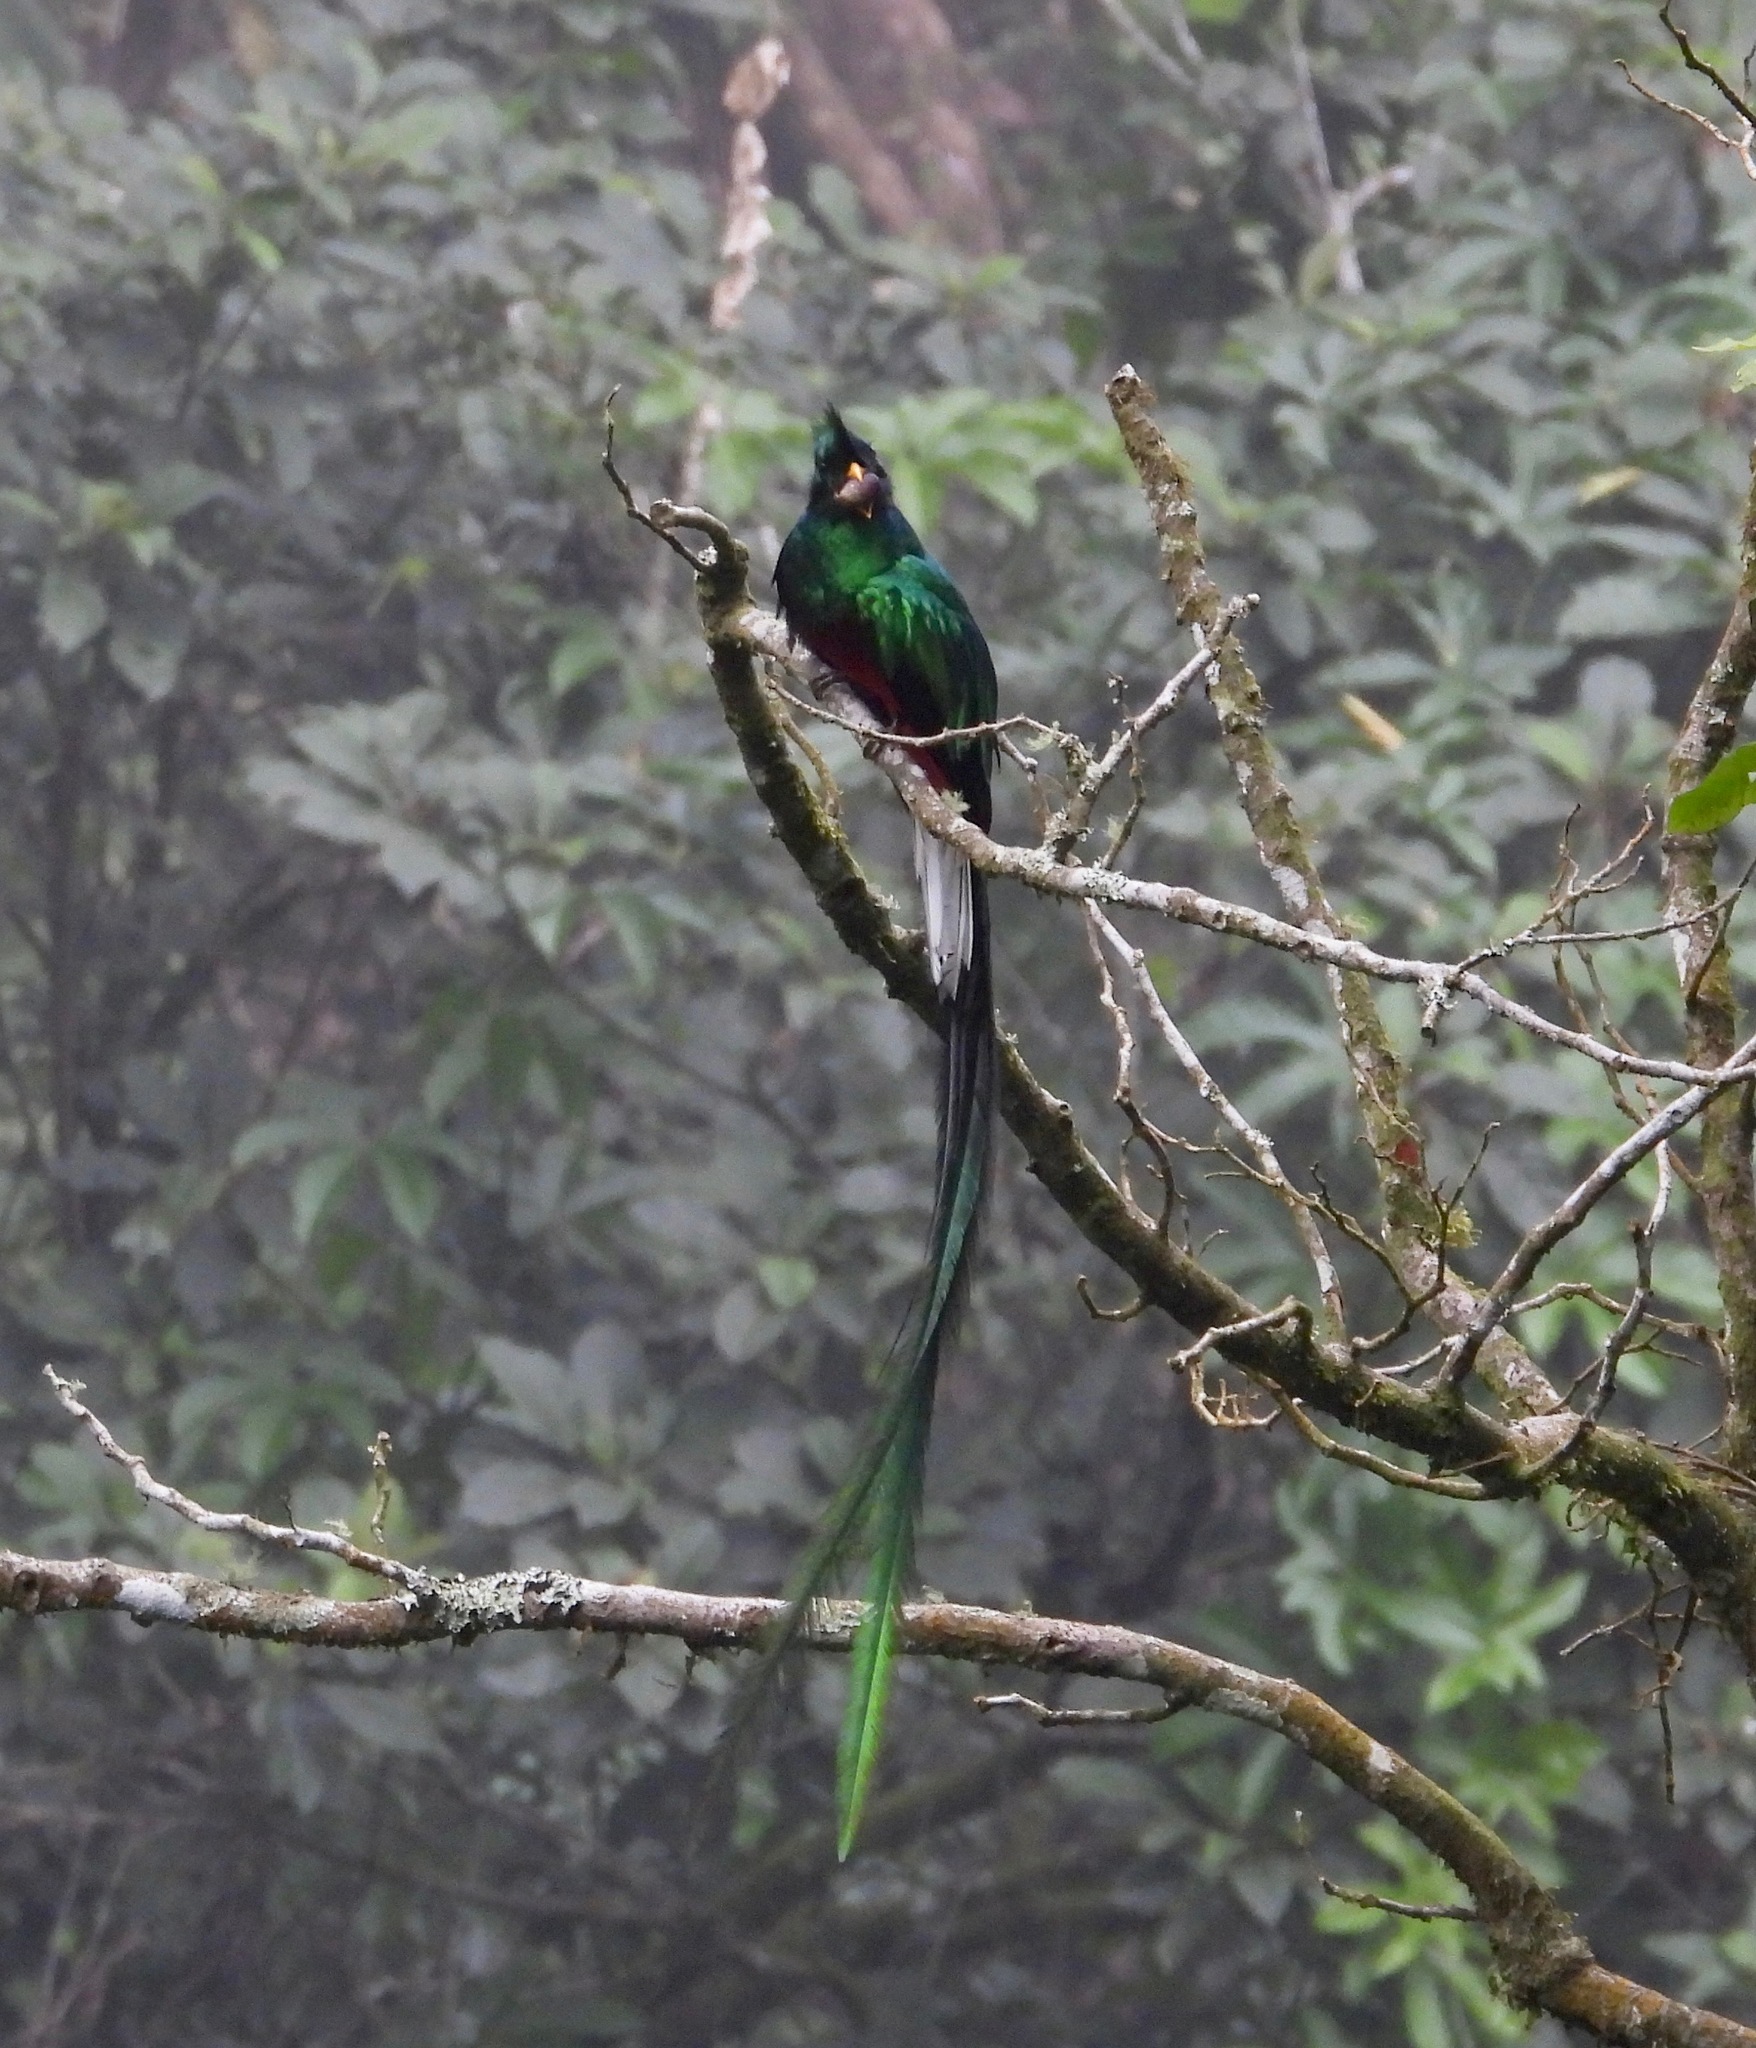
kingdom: Animalia
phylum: Chordata
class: Aves
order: Trogoniformes
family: Trogonidae
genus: Pharomachrus
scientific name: Pharomachrus mocinno
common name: Resplendent quetzal
